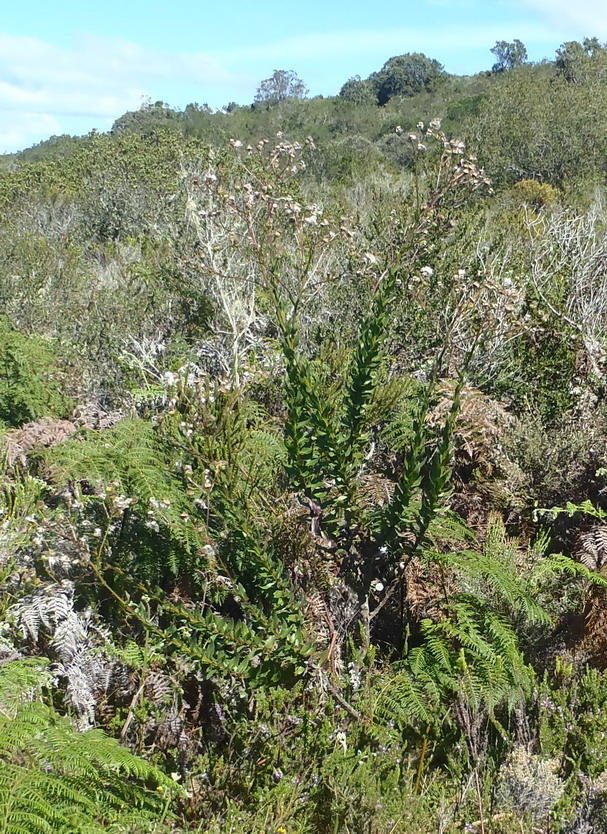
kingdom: Plantae
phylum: Tracheophyta
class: Magnoliopsida
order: Asterales
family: Asteraceae
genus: Senecio
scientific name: Senecio glastifolius
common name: Woad-leaved ragwort
